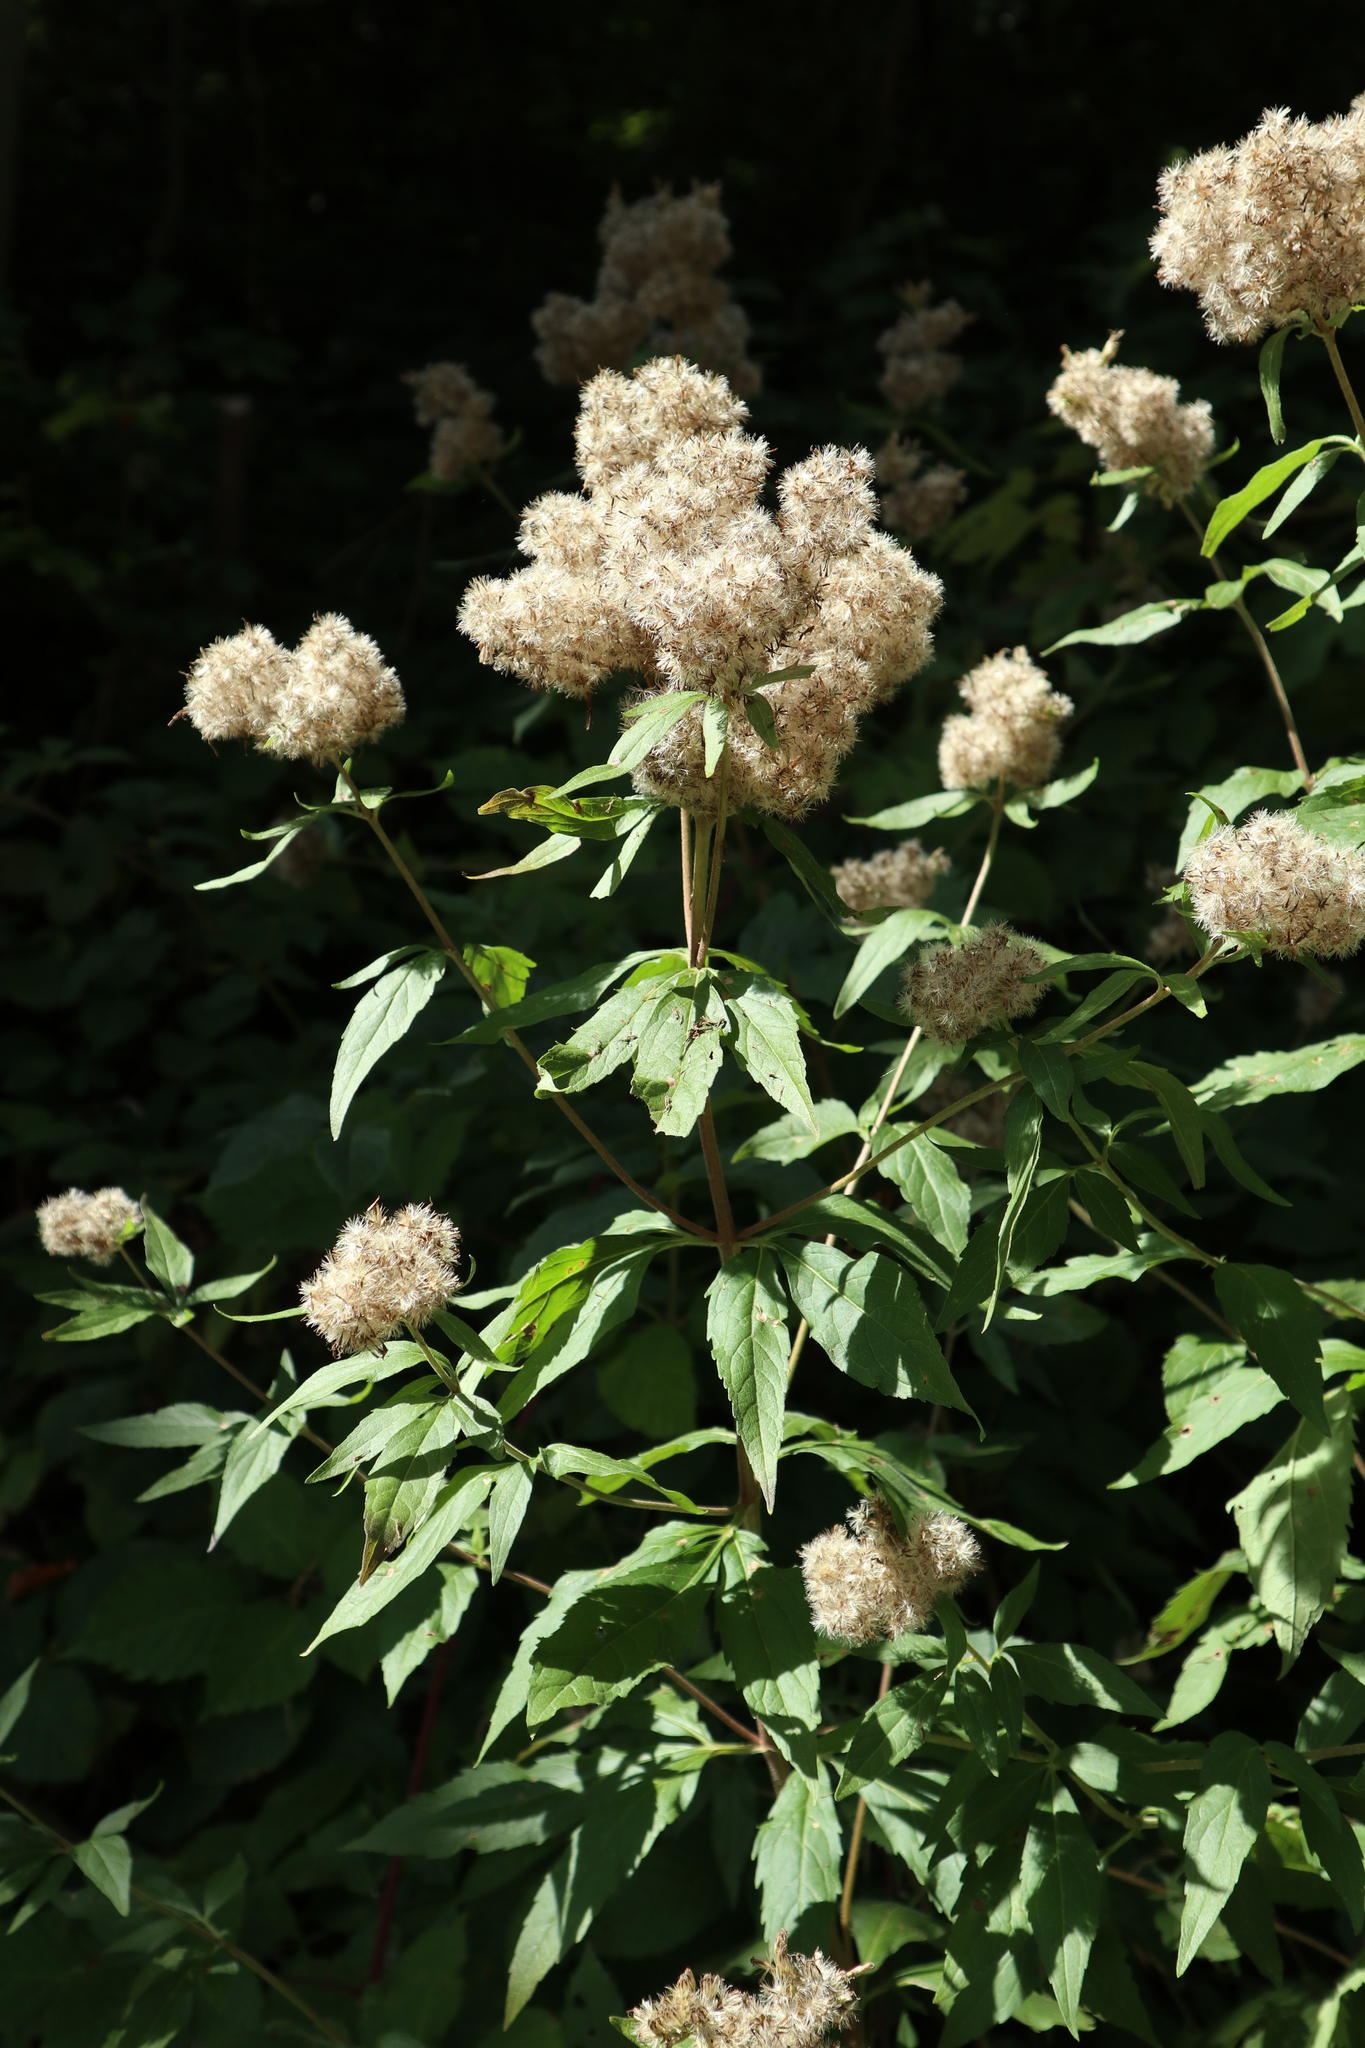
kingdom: Plantae
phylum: Tracheophyta
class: Magnoliopsida
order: Asterales
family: Asteraceae
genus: Eupatorium
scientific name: Eupatorium cannabinum
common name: Hemp-agrimony
